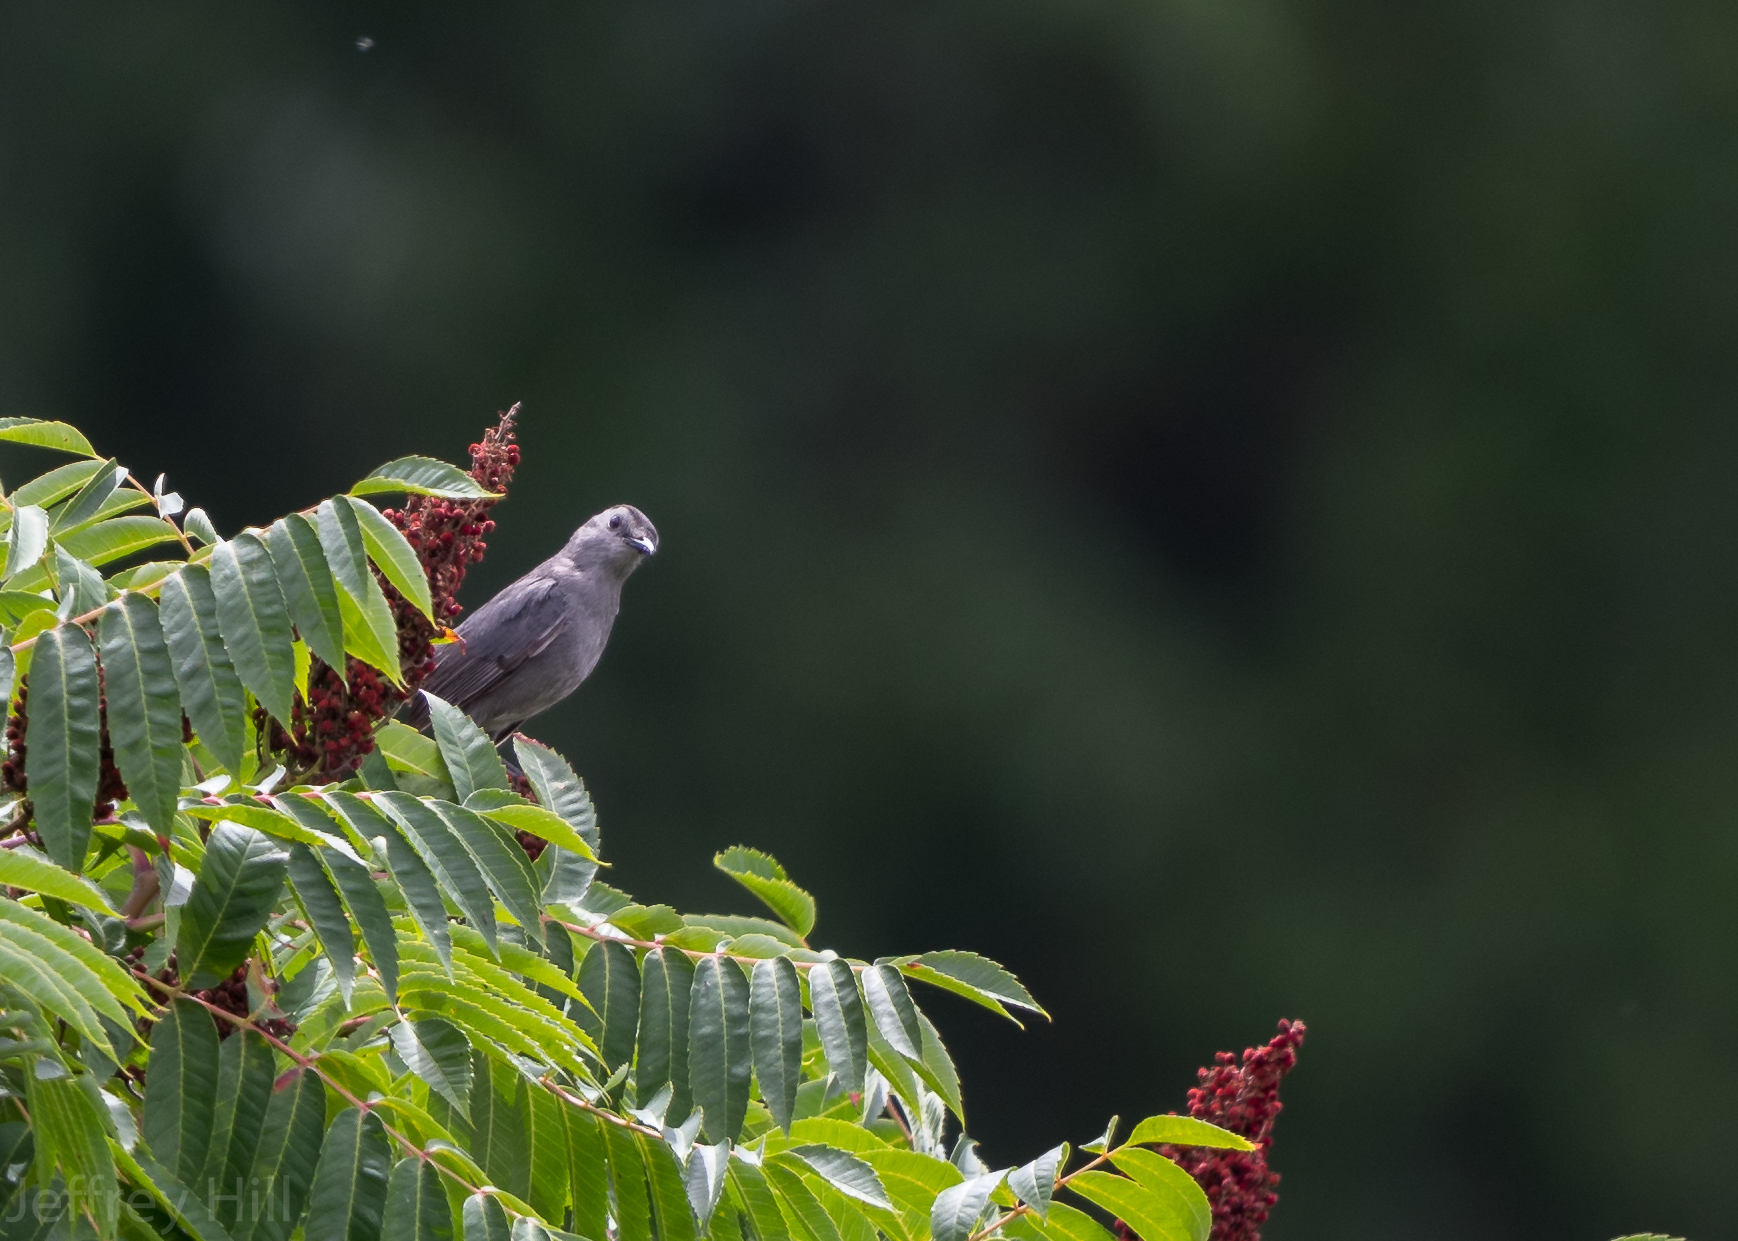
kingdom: Animalia
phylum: Chordata
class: Aves
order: Passeriformes
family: Mimidae
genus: Dumetella
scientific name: Dumetella carolinensis
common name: Gray catbird
